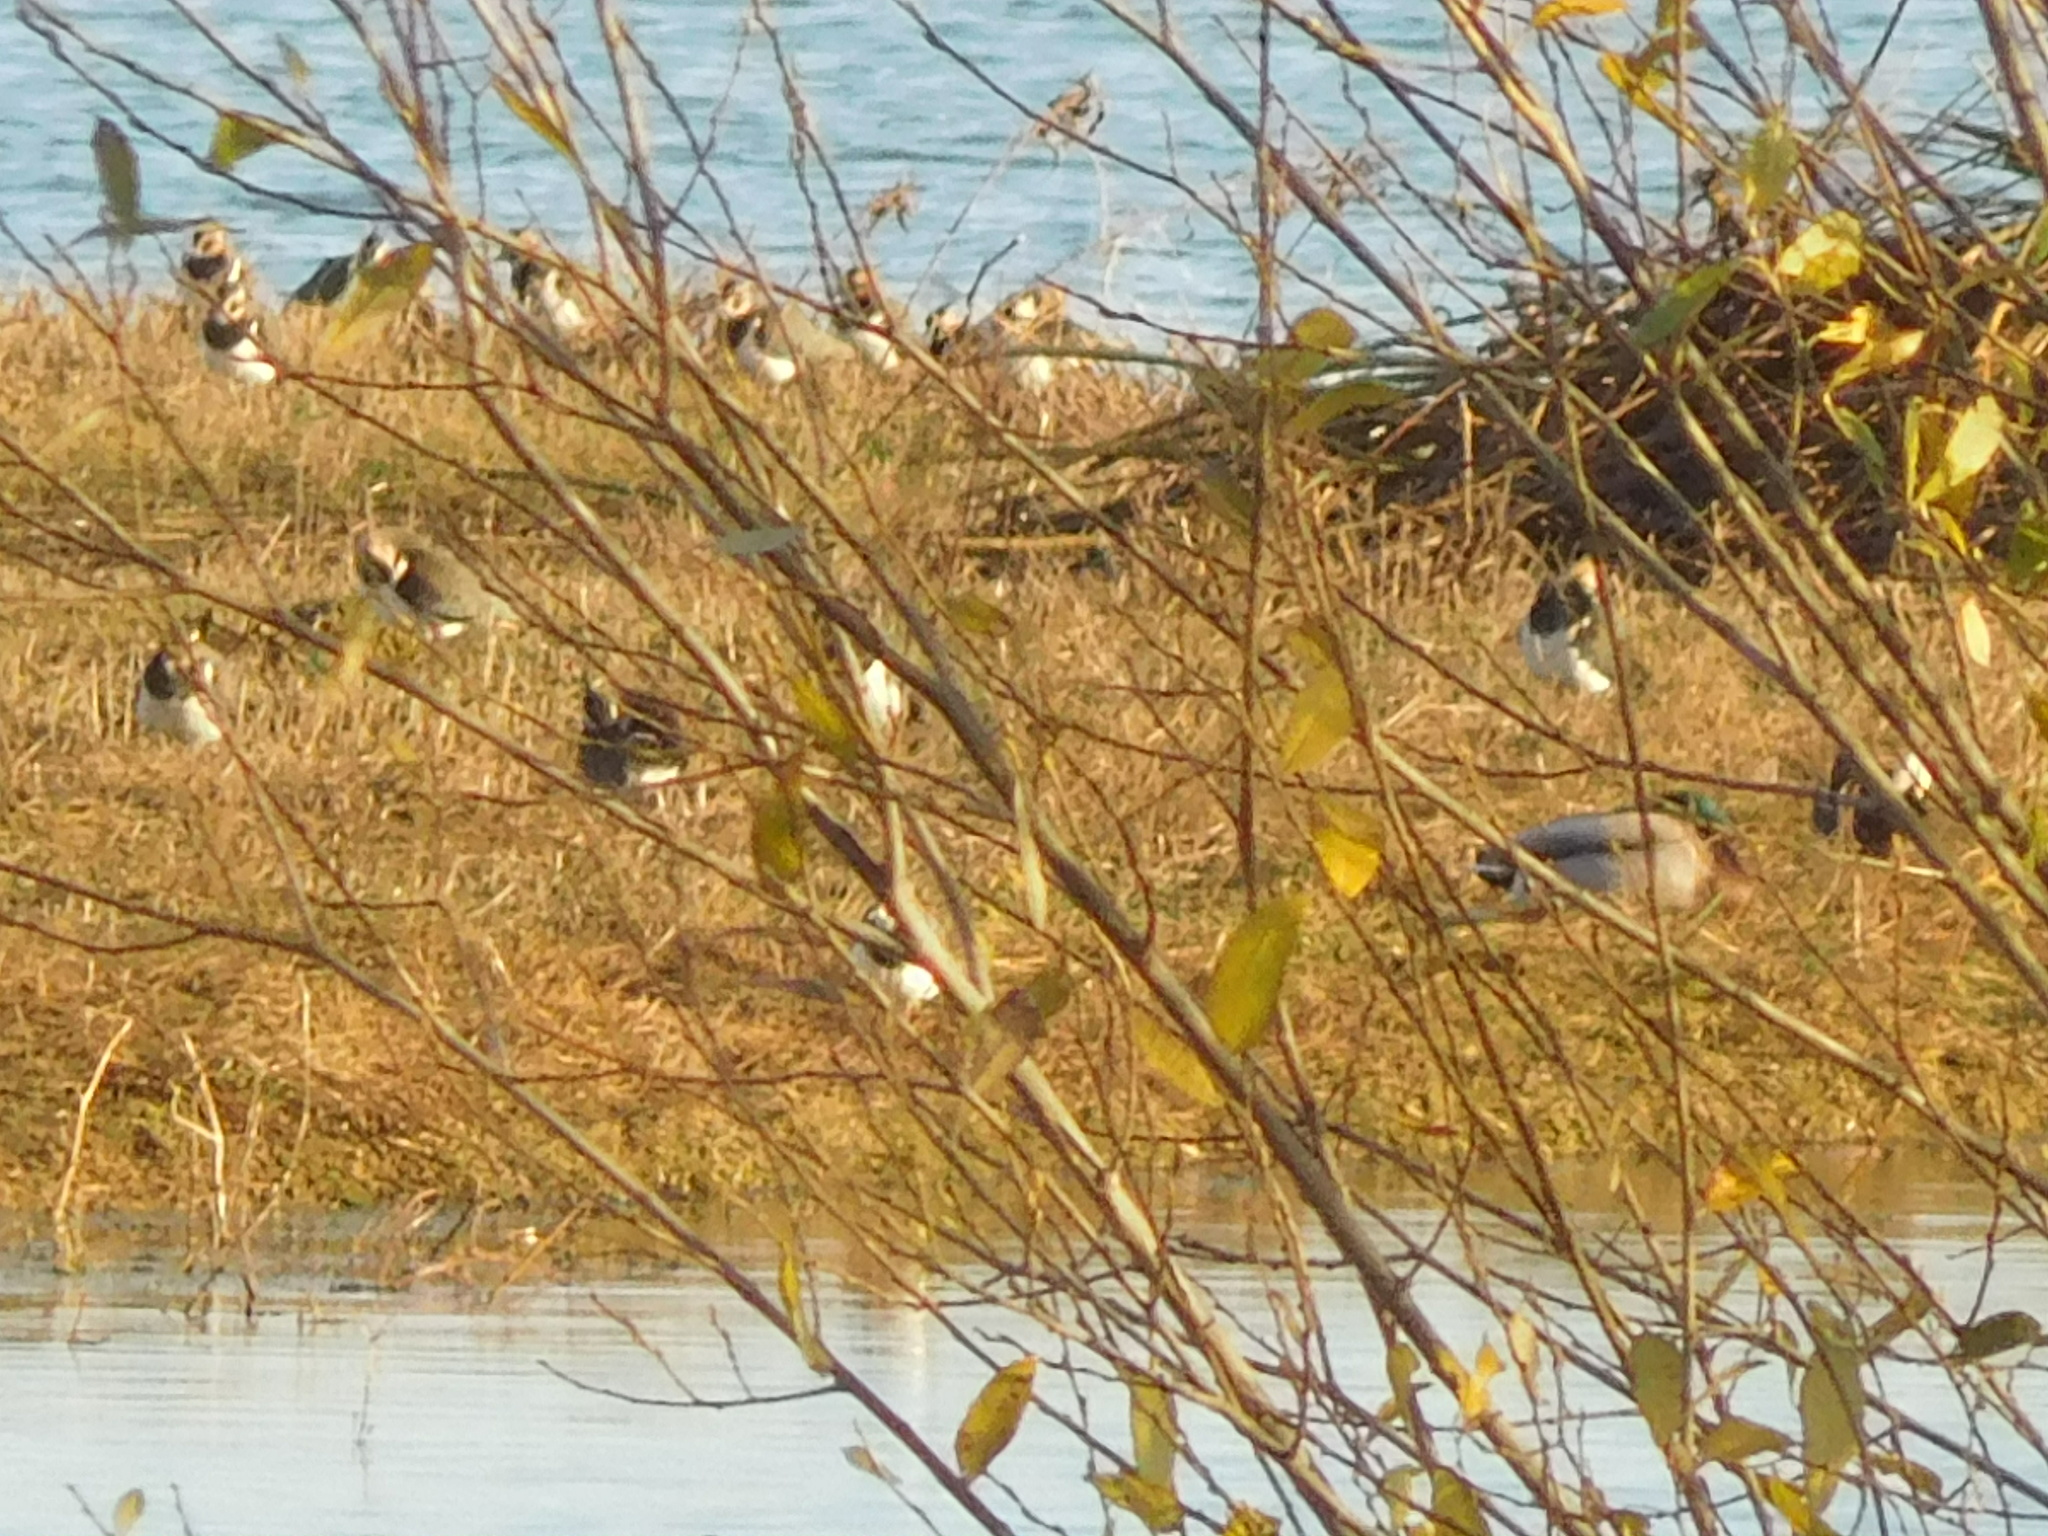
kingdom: Animalia
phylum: Chordata
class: Aves
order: Charadriiformes
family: Charadriidae
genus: Vanellus
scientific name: Vanellus vanellus
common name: Northern lapwing
